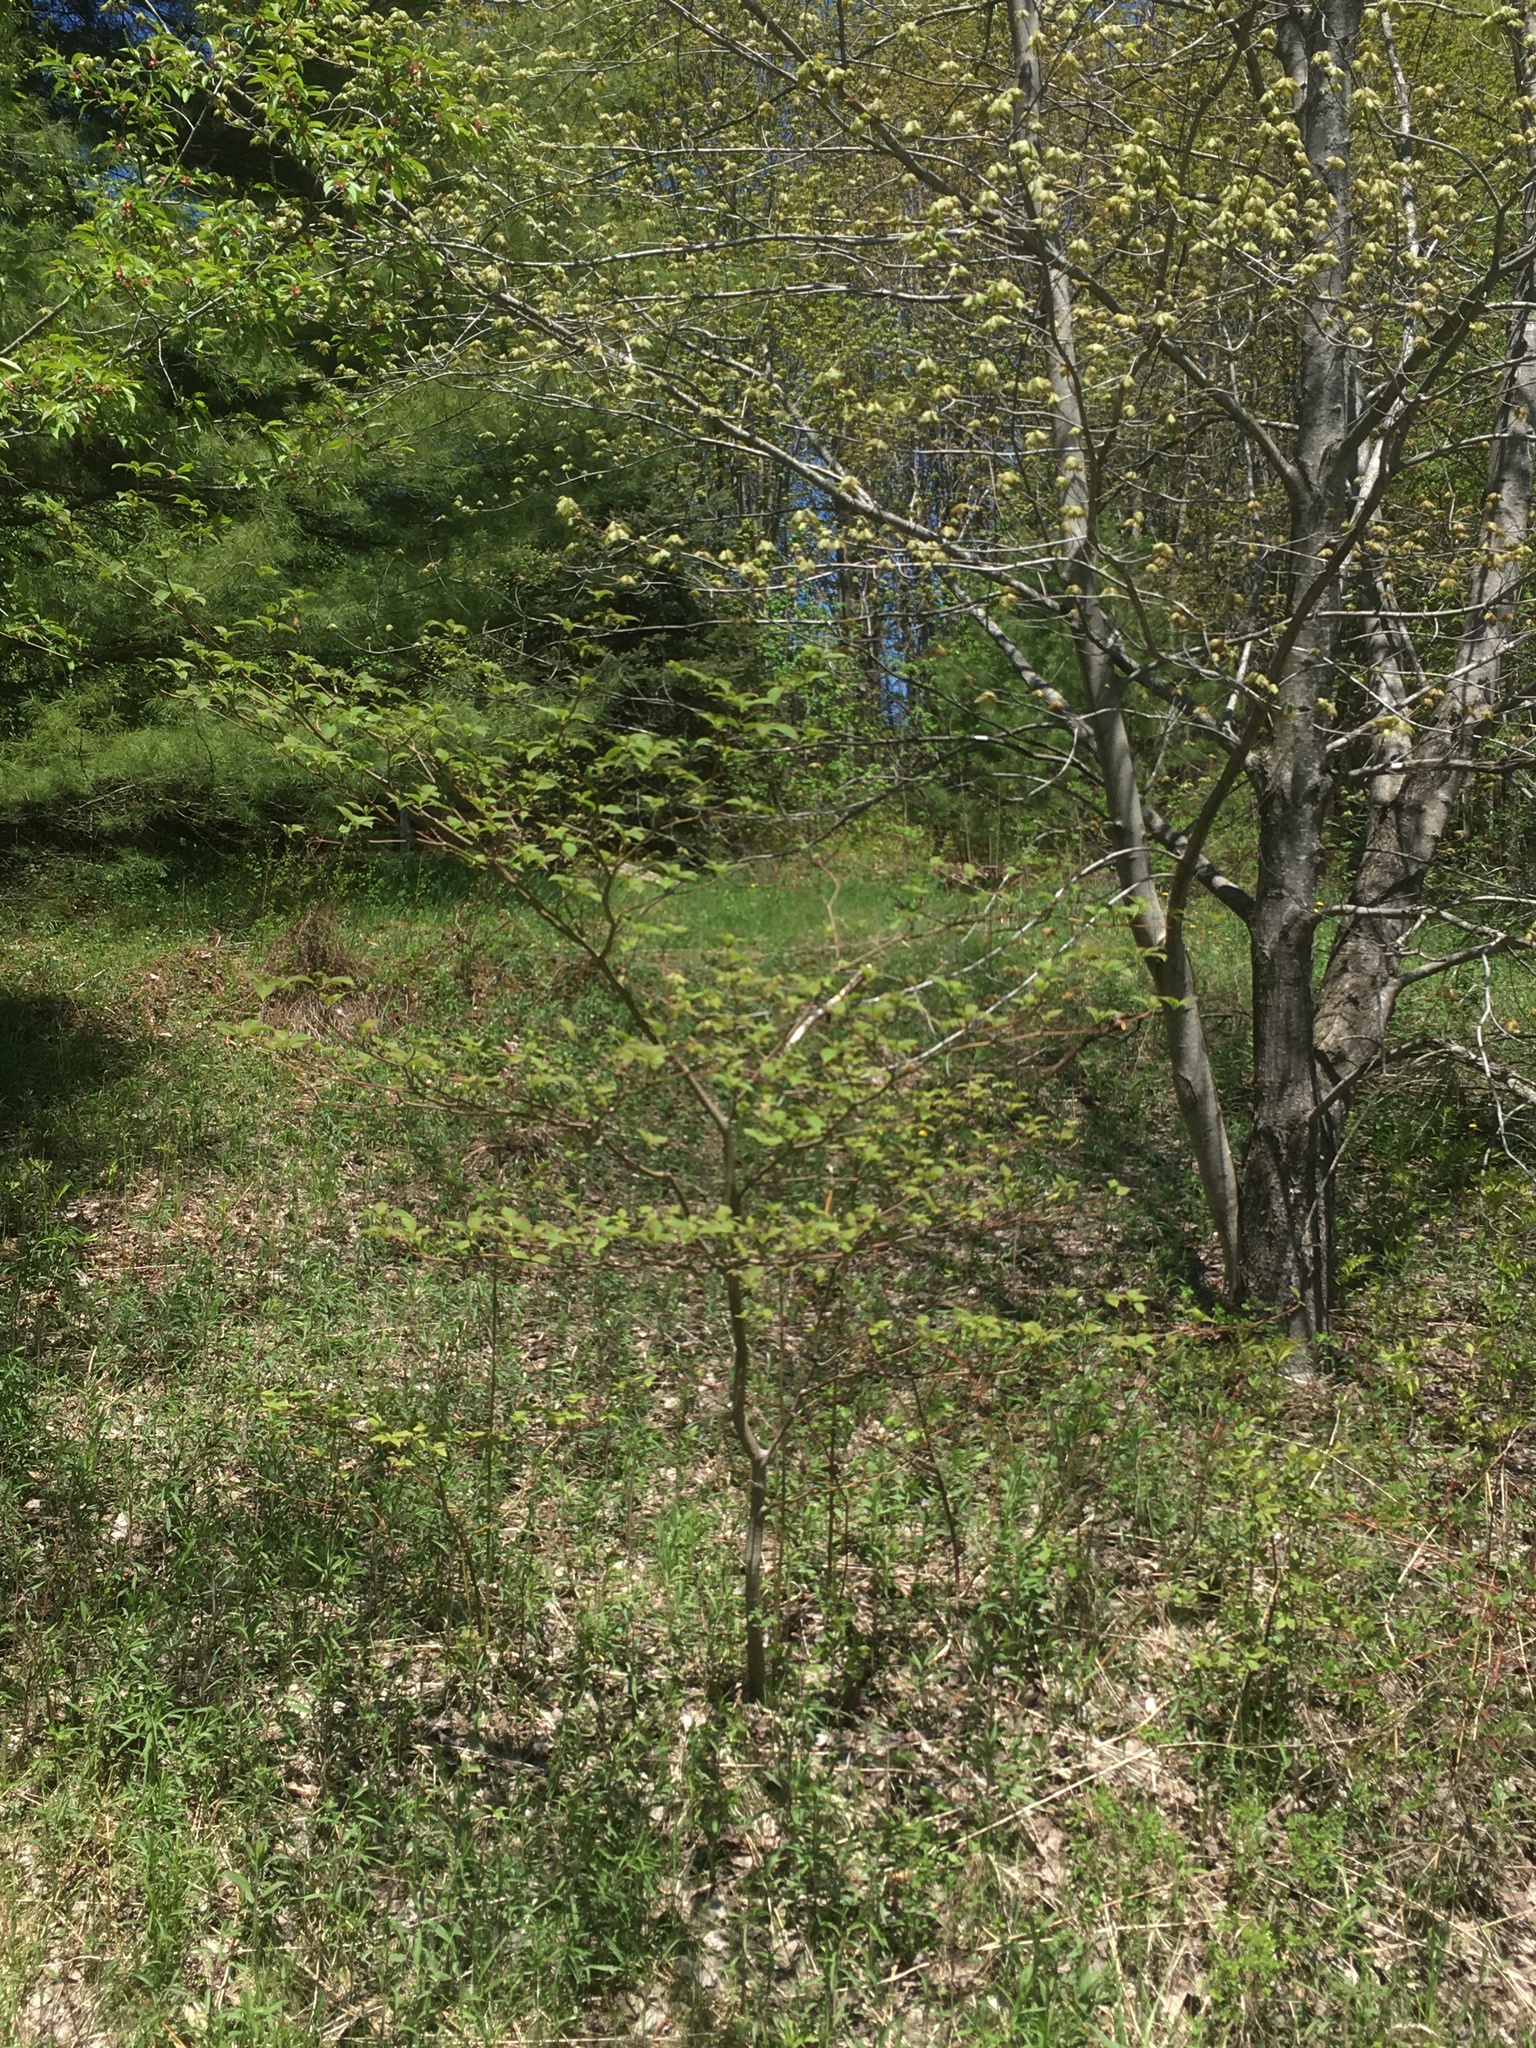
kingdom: Plantae
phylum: Tracheophyta
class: Magnoliopsida
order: Cornales
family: Cornaceae
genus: Cornus
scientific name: Cornus alternifolia
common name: Pagoda dogwood
